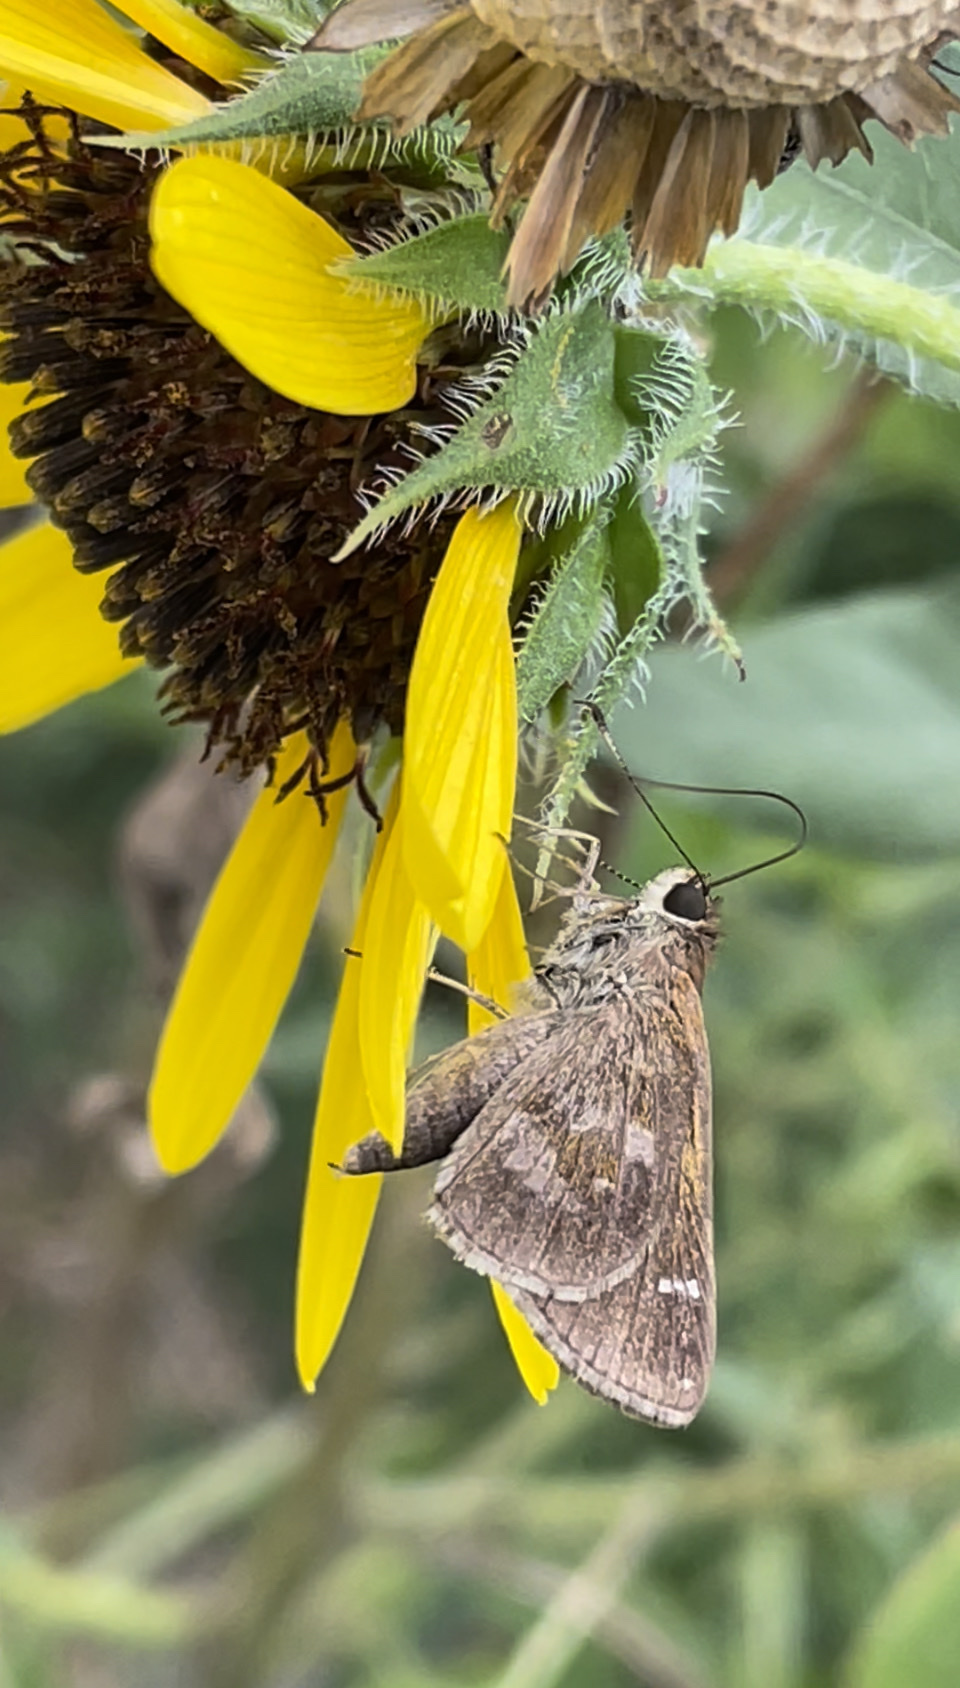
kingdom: Animalia
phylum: Arthropoda
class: Insecta
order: Lepidoptera
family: Hesperiidae
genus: Cymaenes
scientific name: Cymaenes
